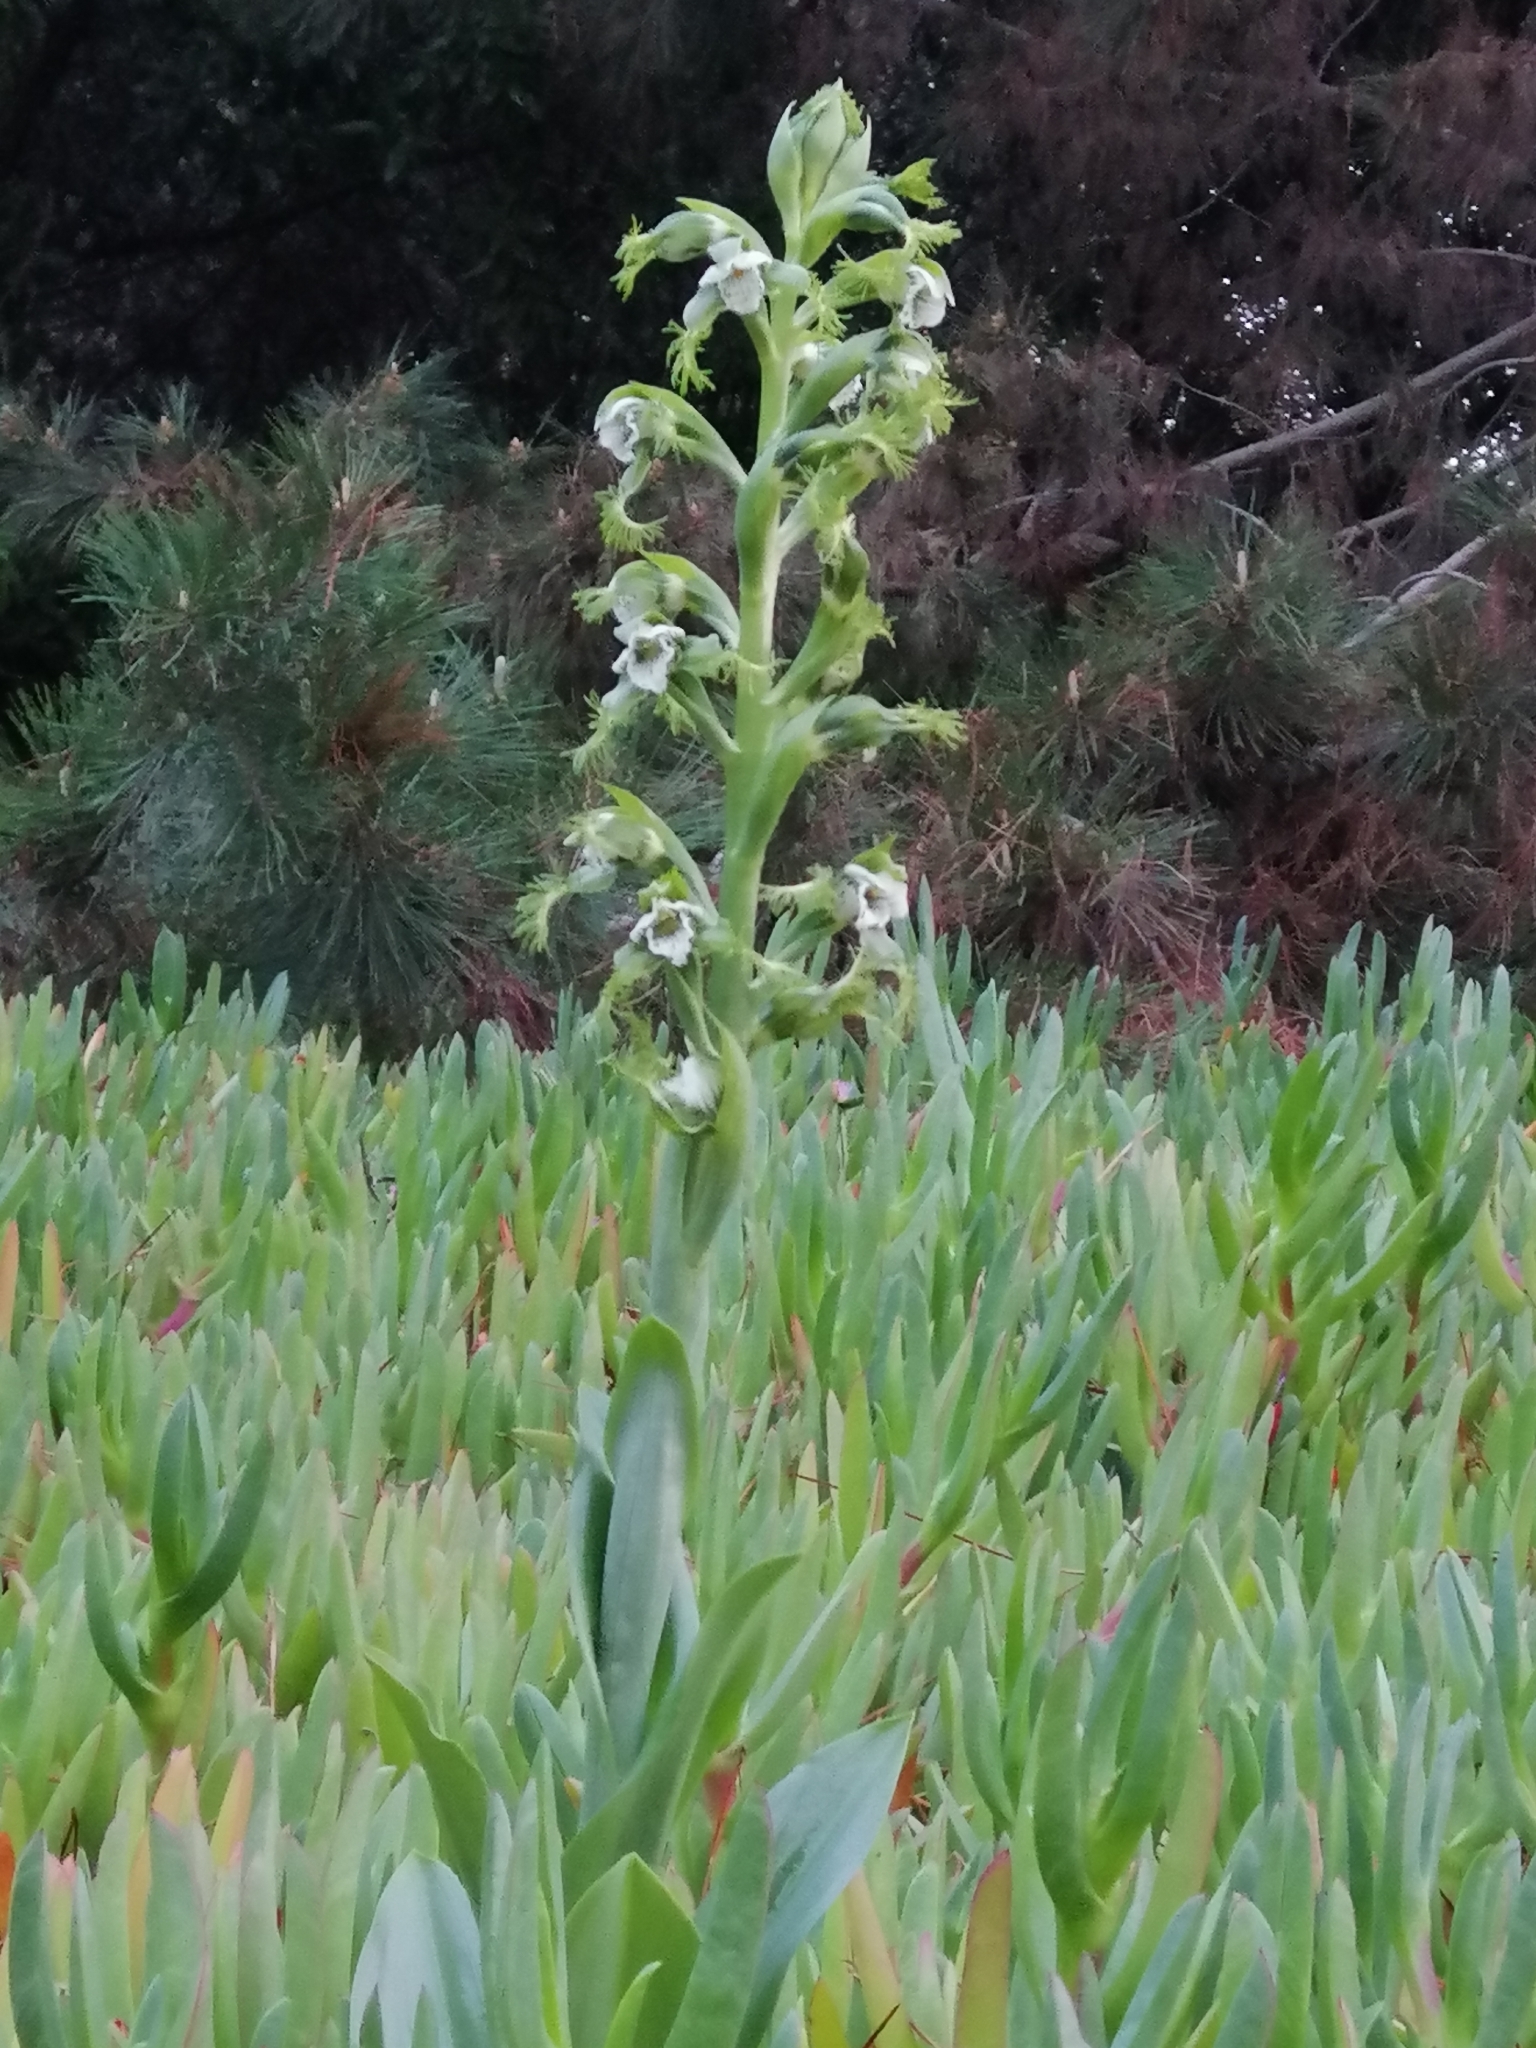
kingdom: Plantae
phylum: Tracheophyta
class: Liliopsida
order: Asparagales
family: Orchidaceae
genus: Bipinnula
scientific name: Bipinnula fimbriata
